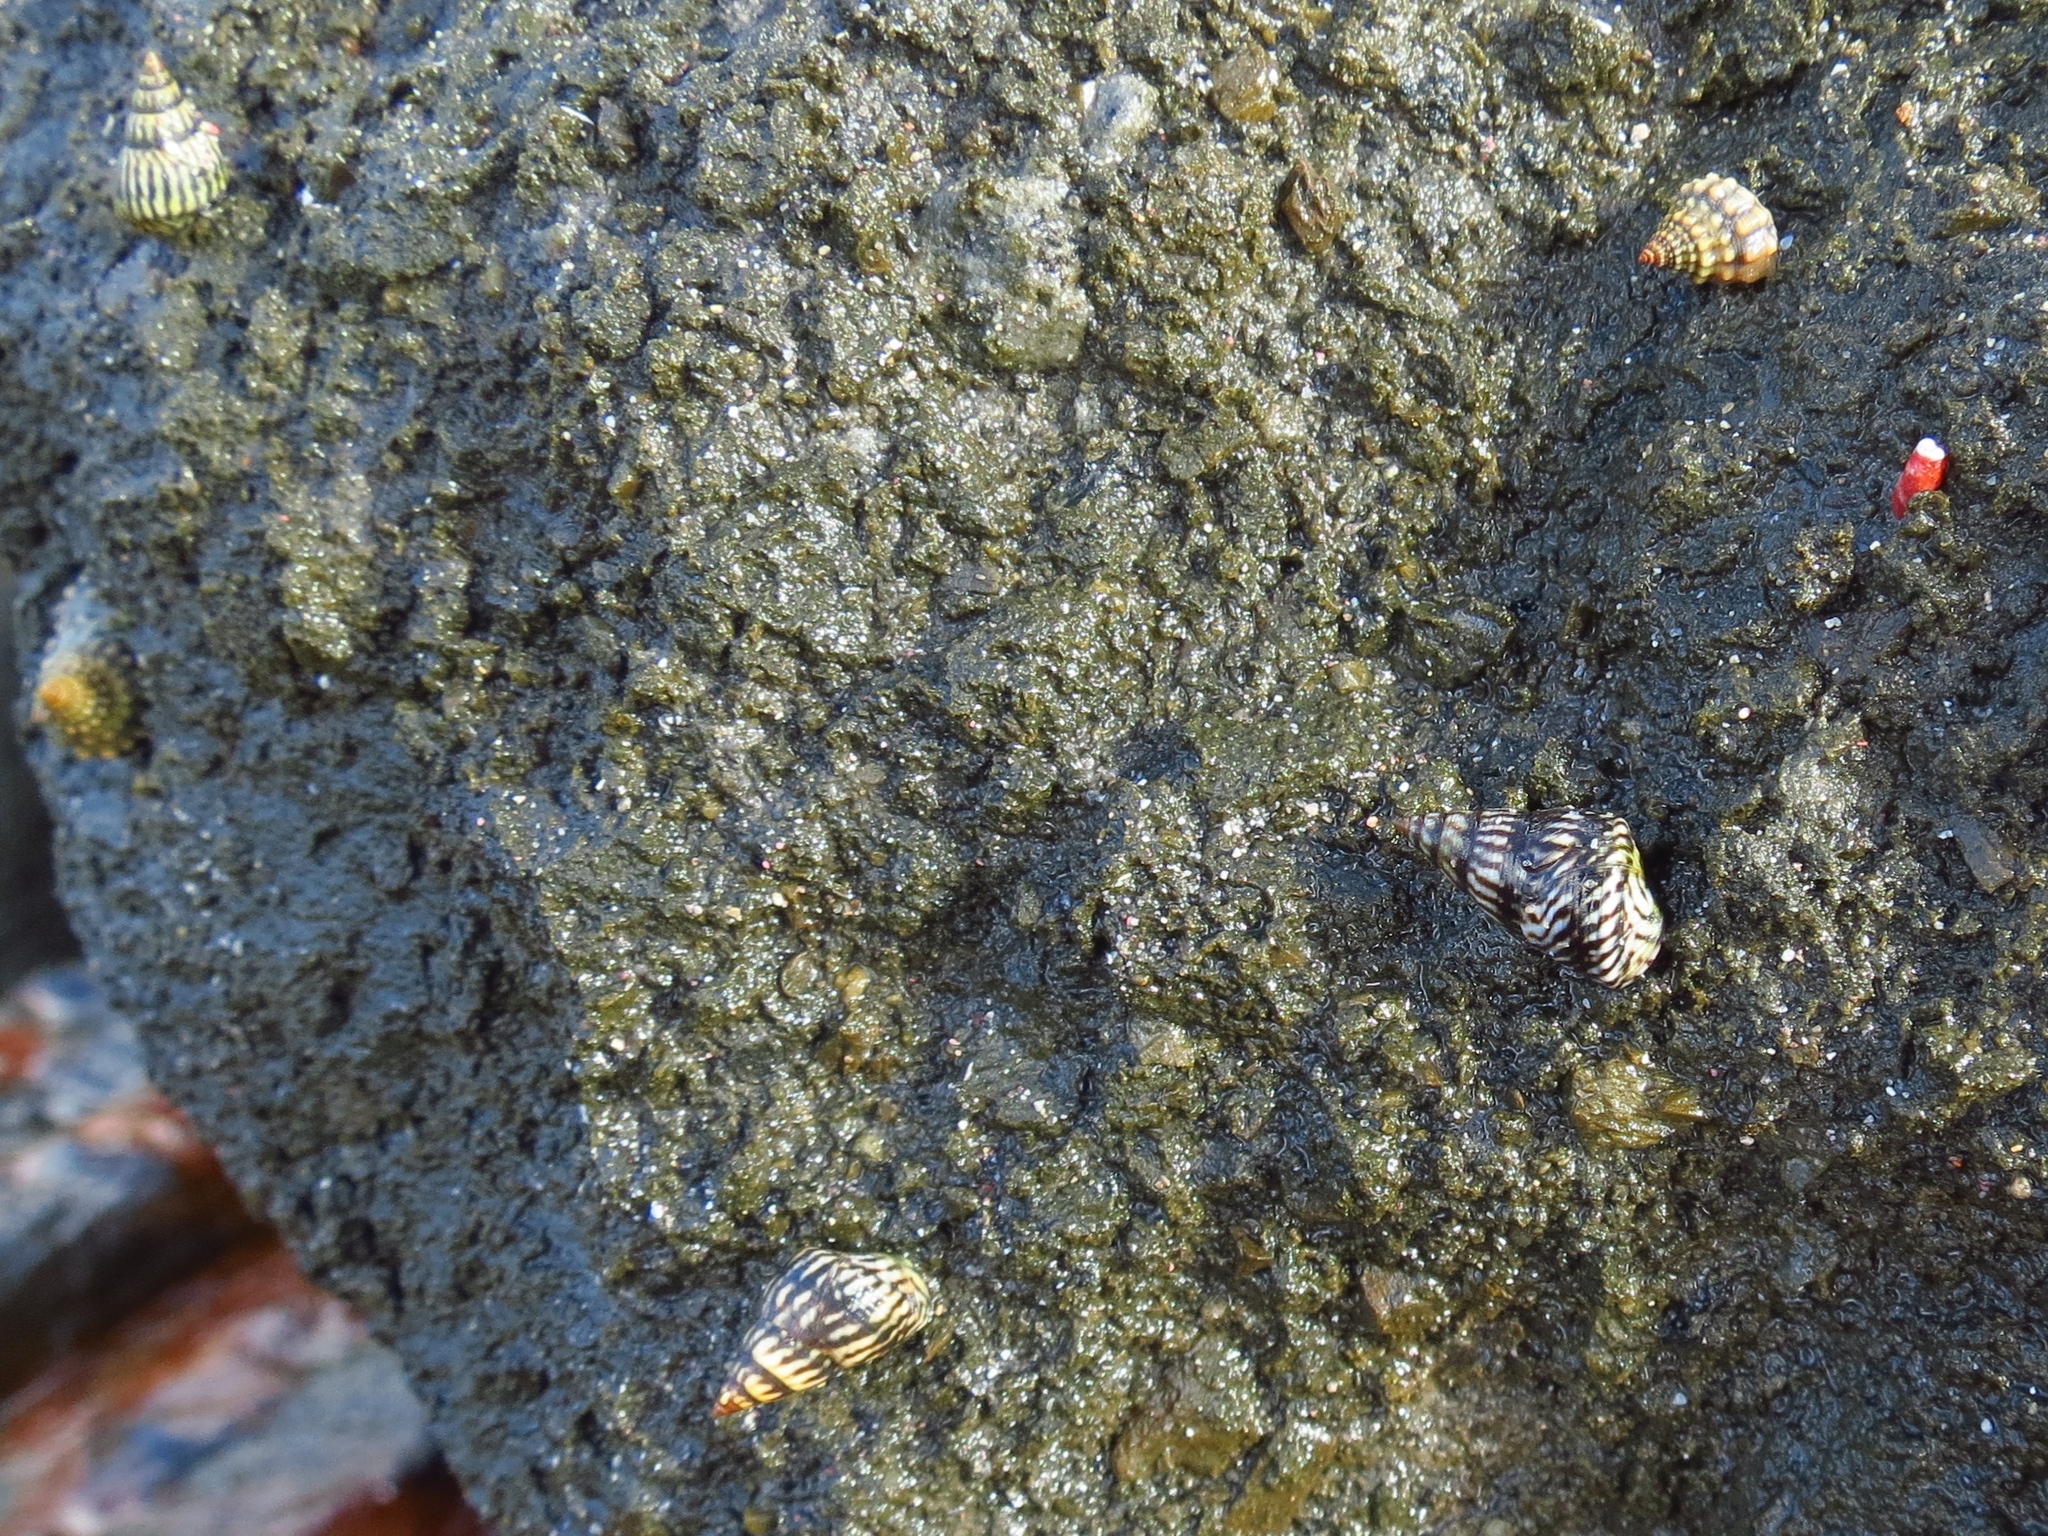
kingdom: Animalia
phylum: Mollusca
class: Gastropoda
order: Littorinimorpha
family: Littorinidae
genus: Echinolittorina
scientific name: Echinolittorina interrupta
